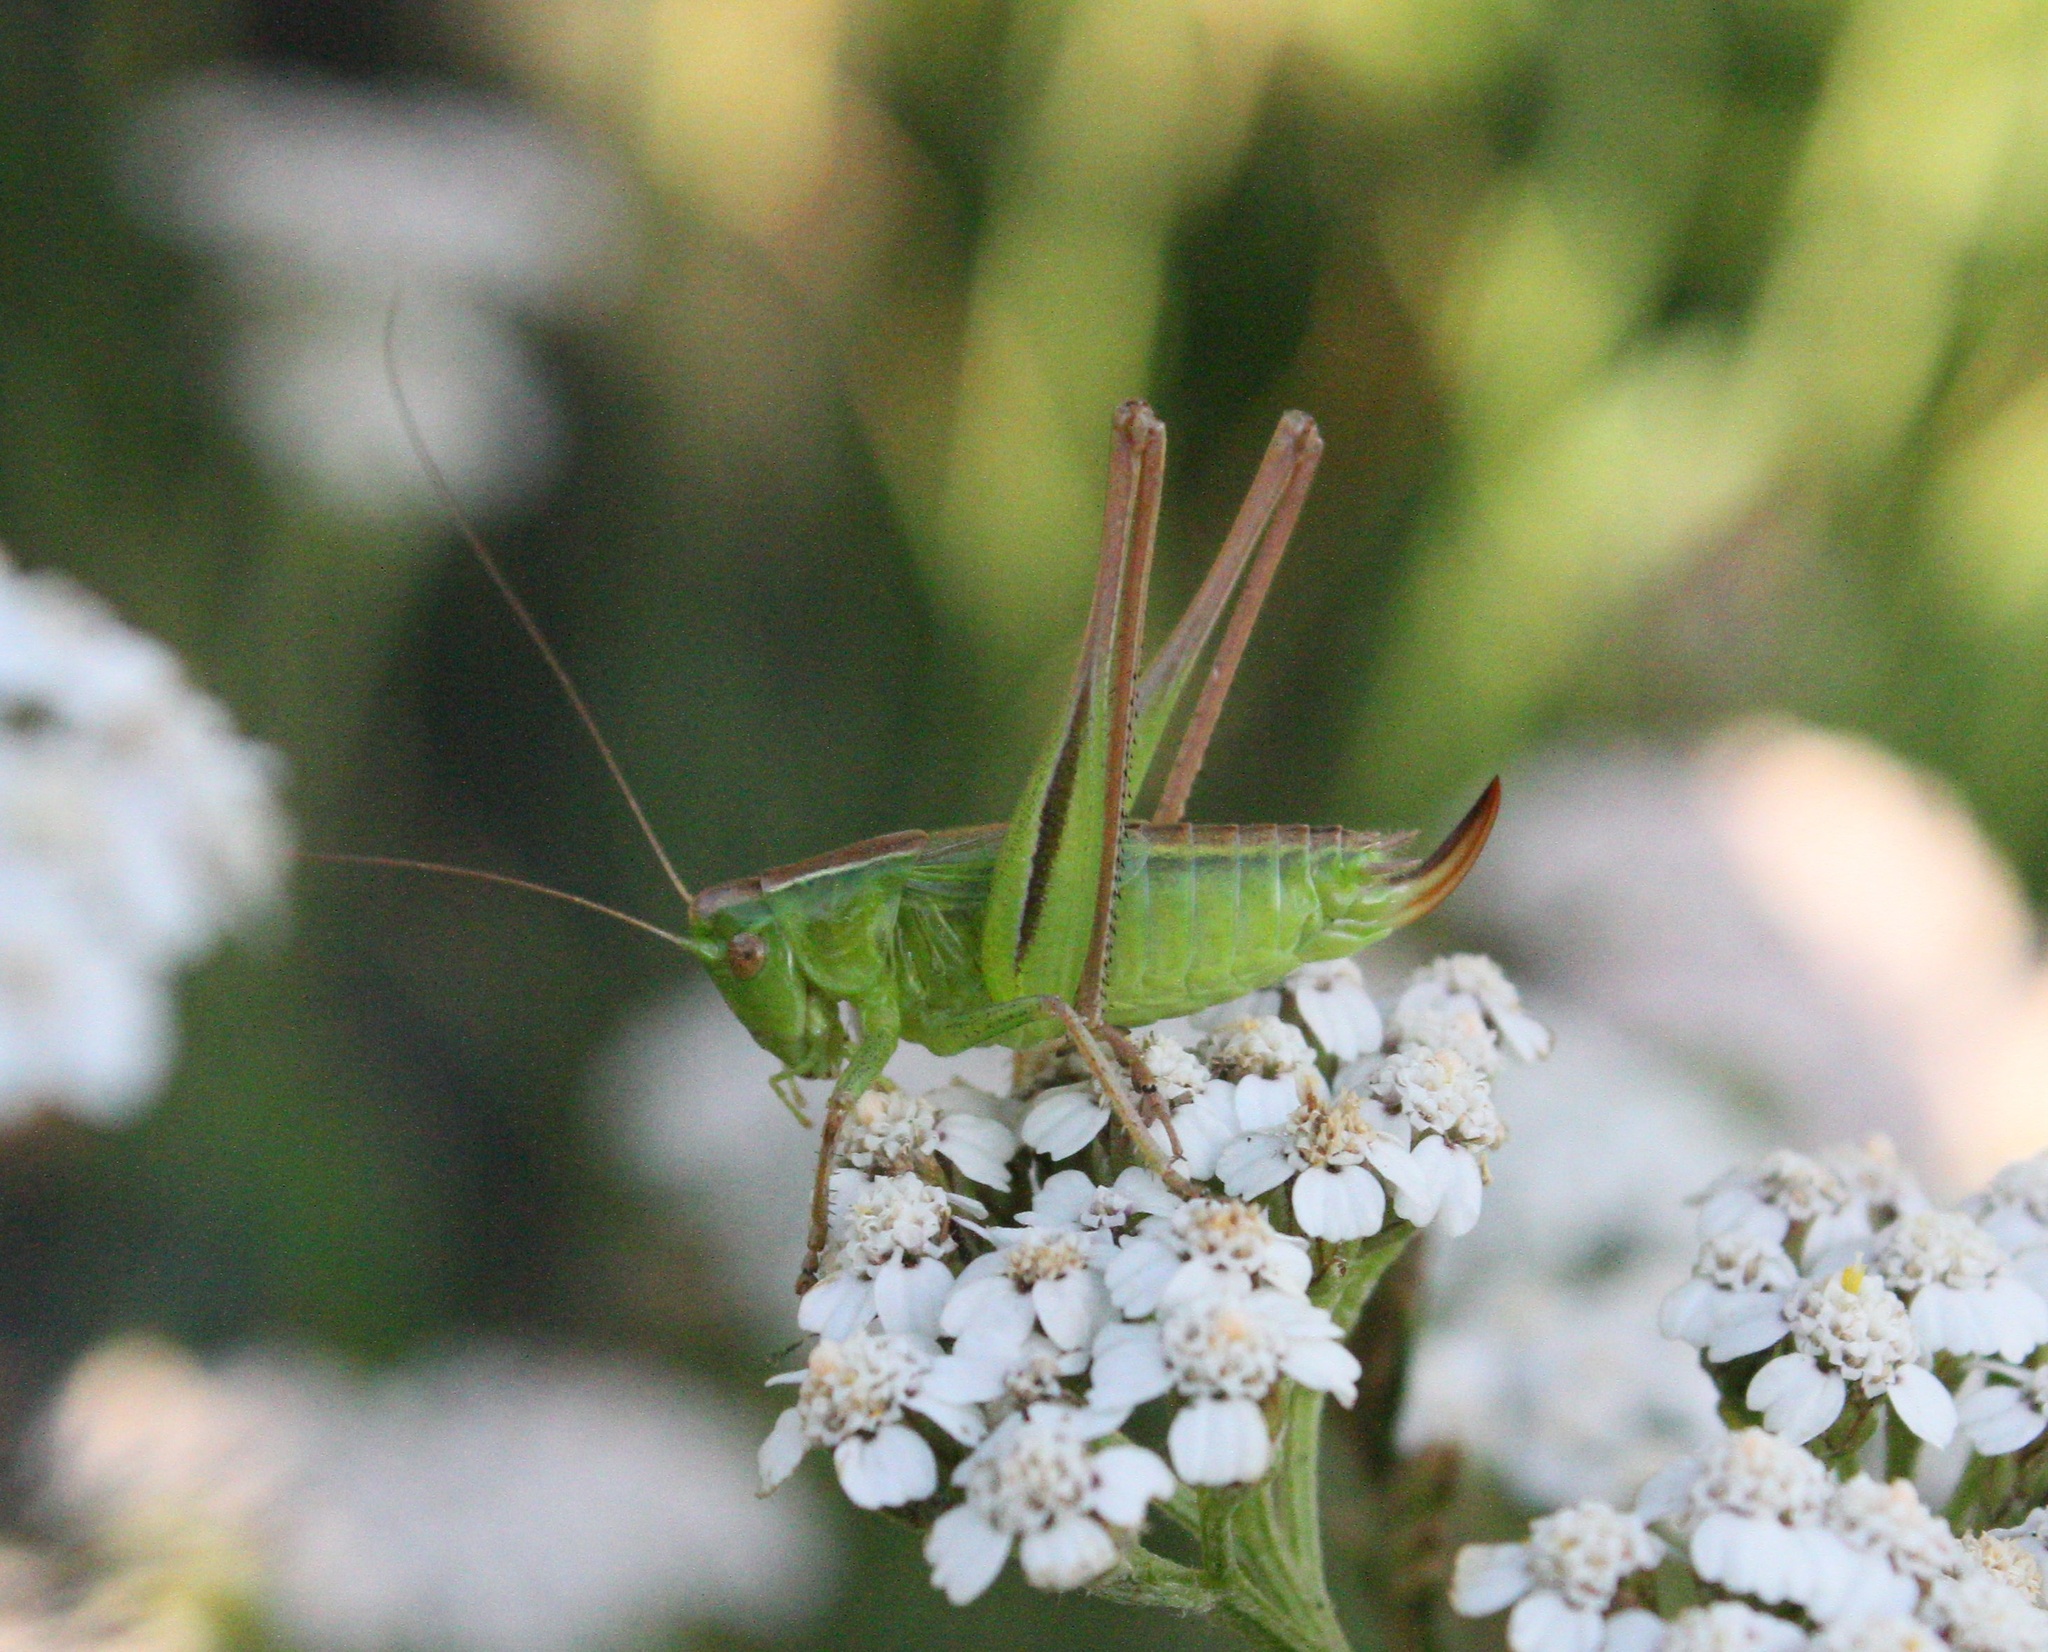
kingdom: Animalia
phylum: Arthropoda
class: Insecta
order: Orthoptera
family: Tettigoniidae
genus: Bicolorana
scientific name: Bicolorana bicolor
